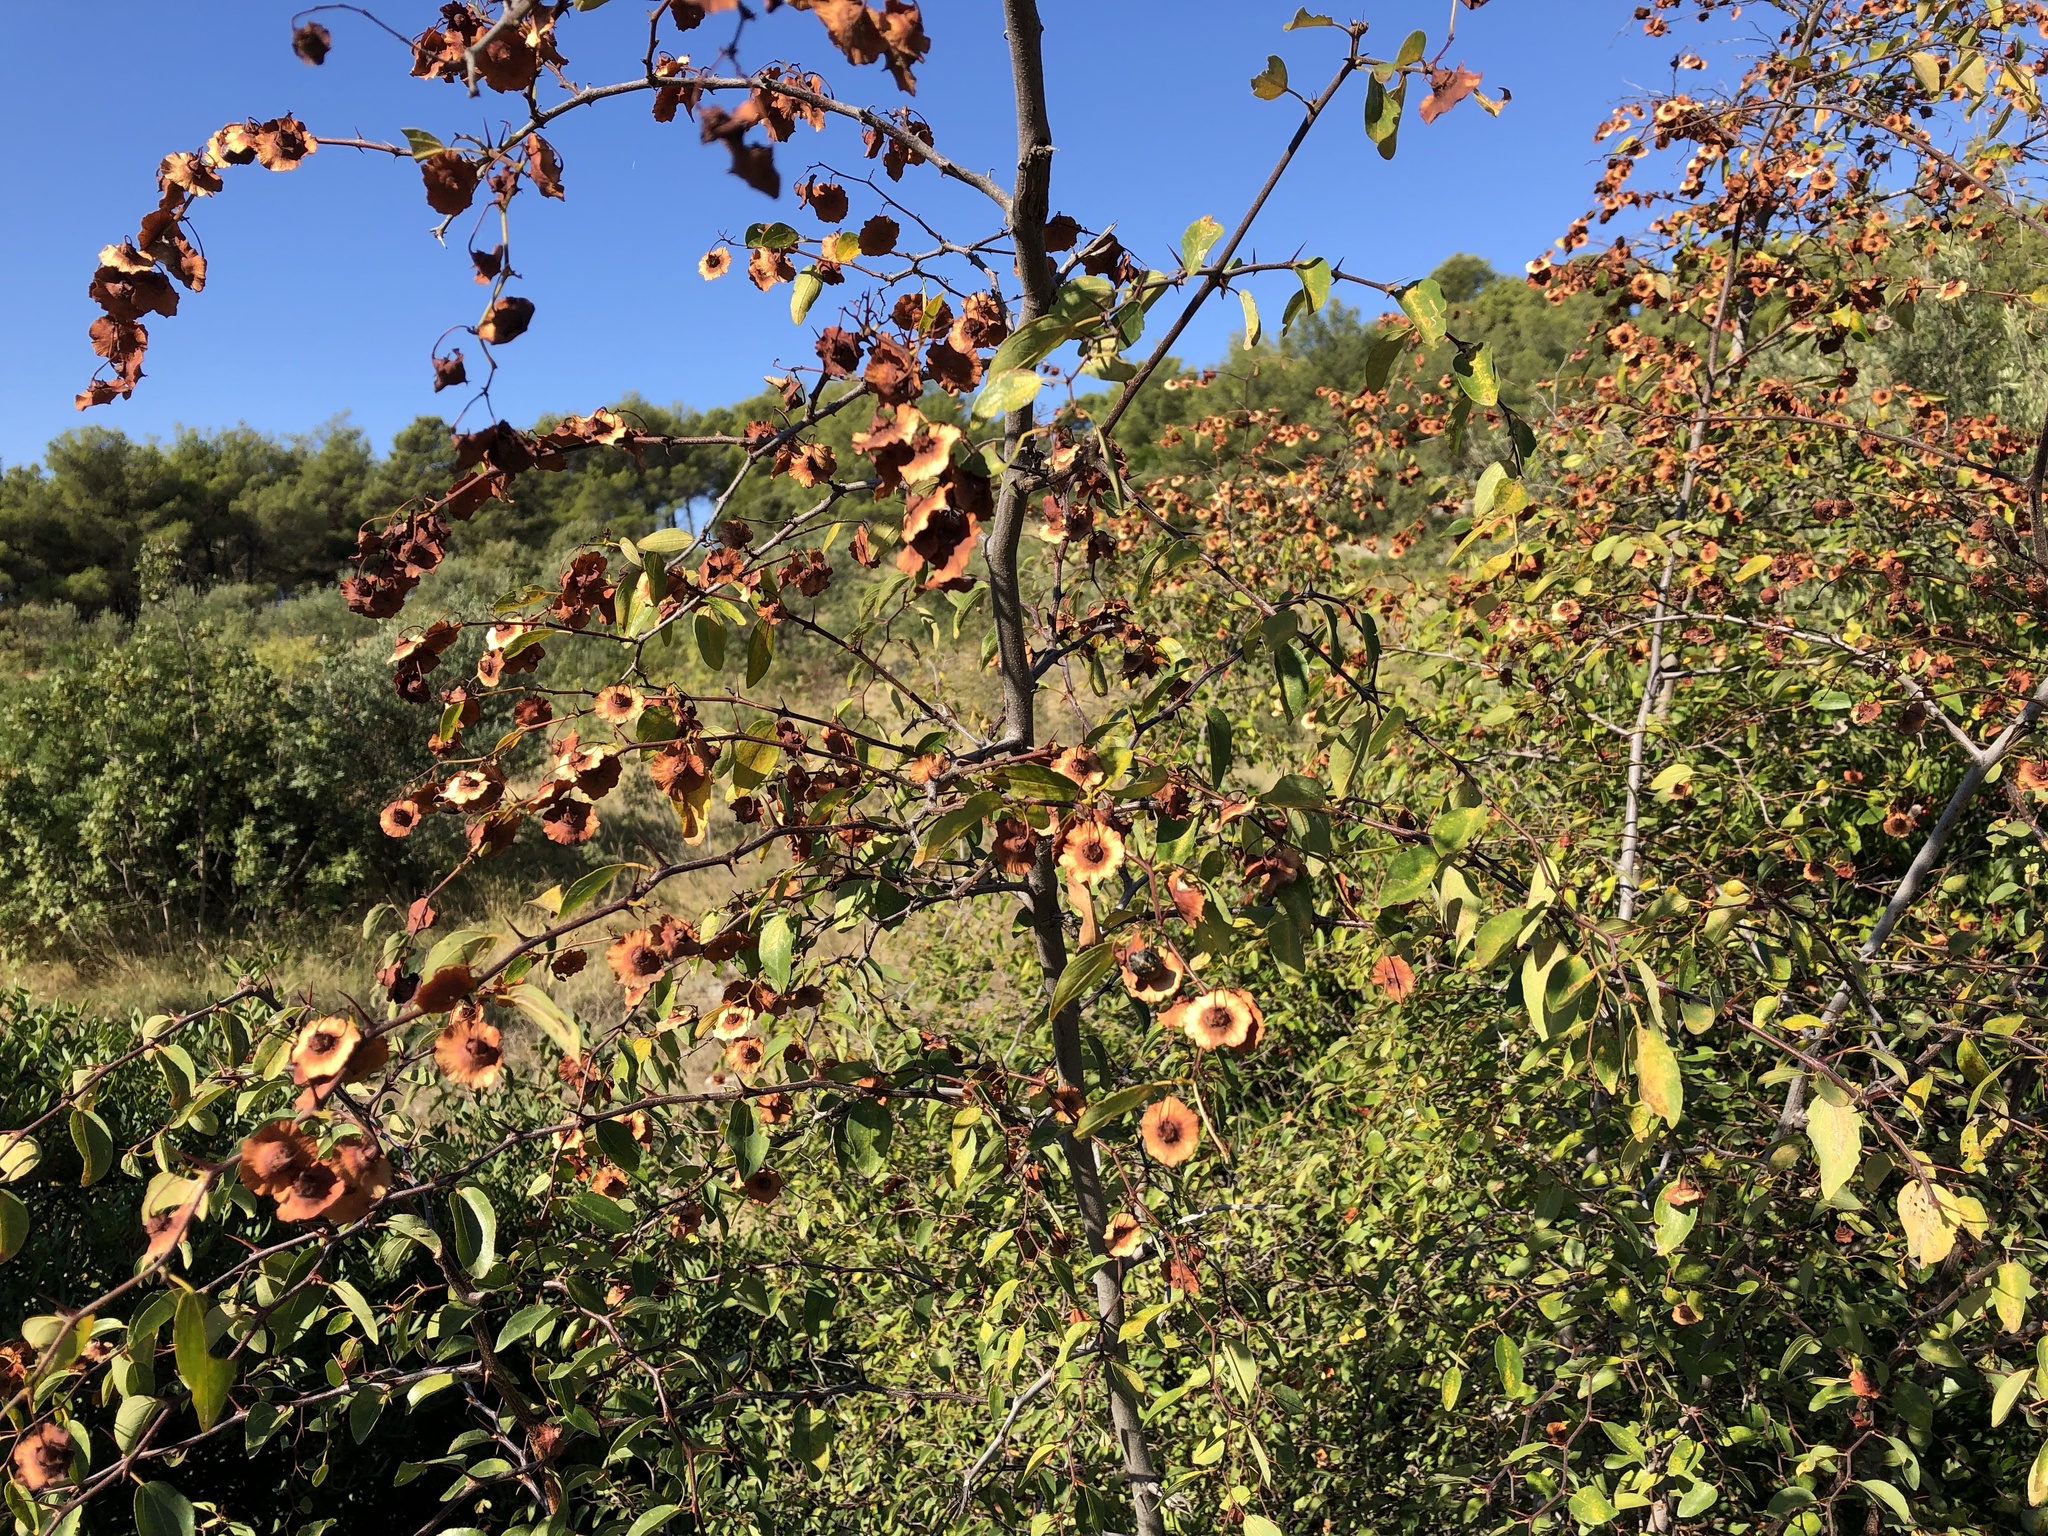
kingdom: Plantae
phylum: Tracheophyta
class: Magnoliopsida
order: Rosales
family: Rhamnaceae
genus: Paliurus
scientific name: Paliurus spina-christi
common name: Jeruselem thorn
